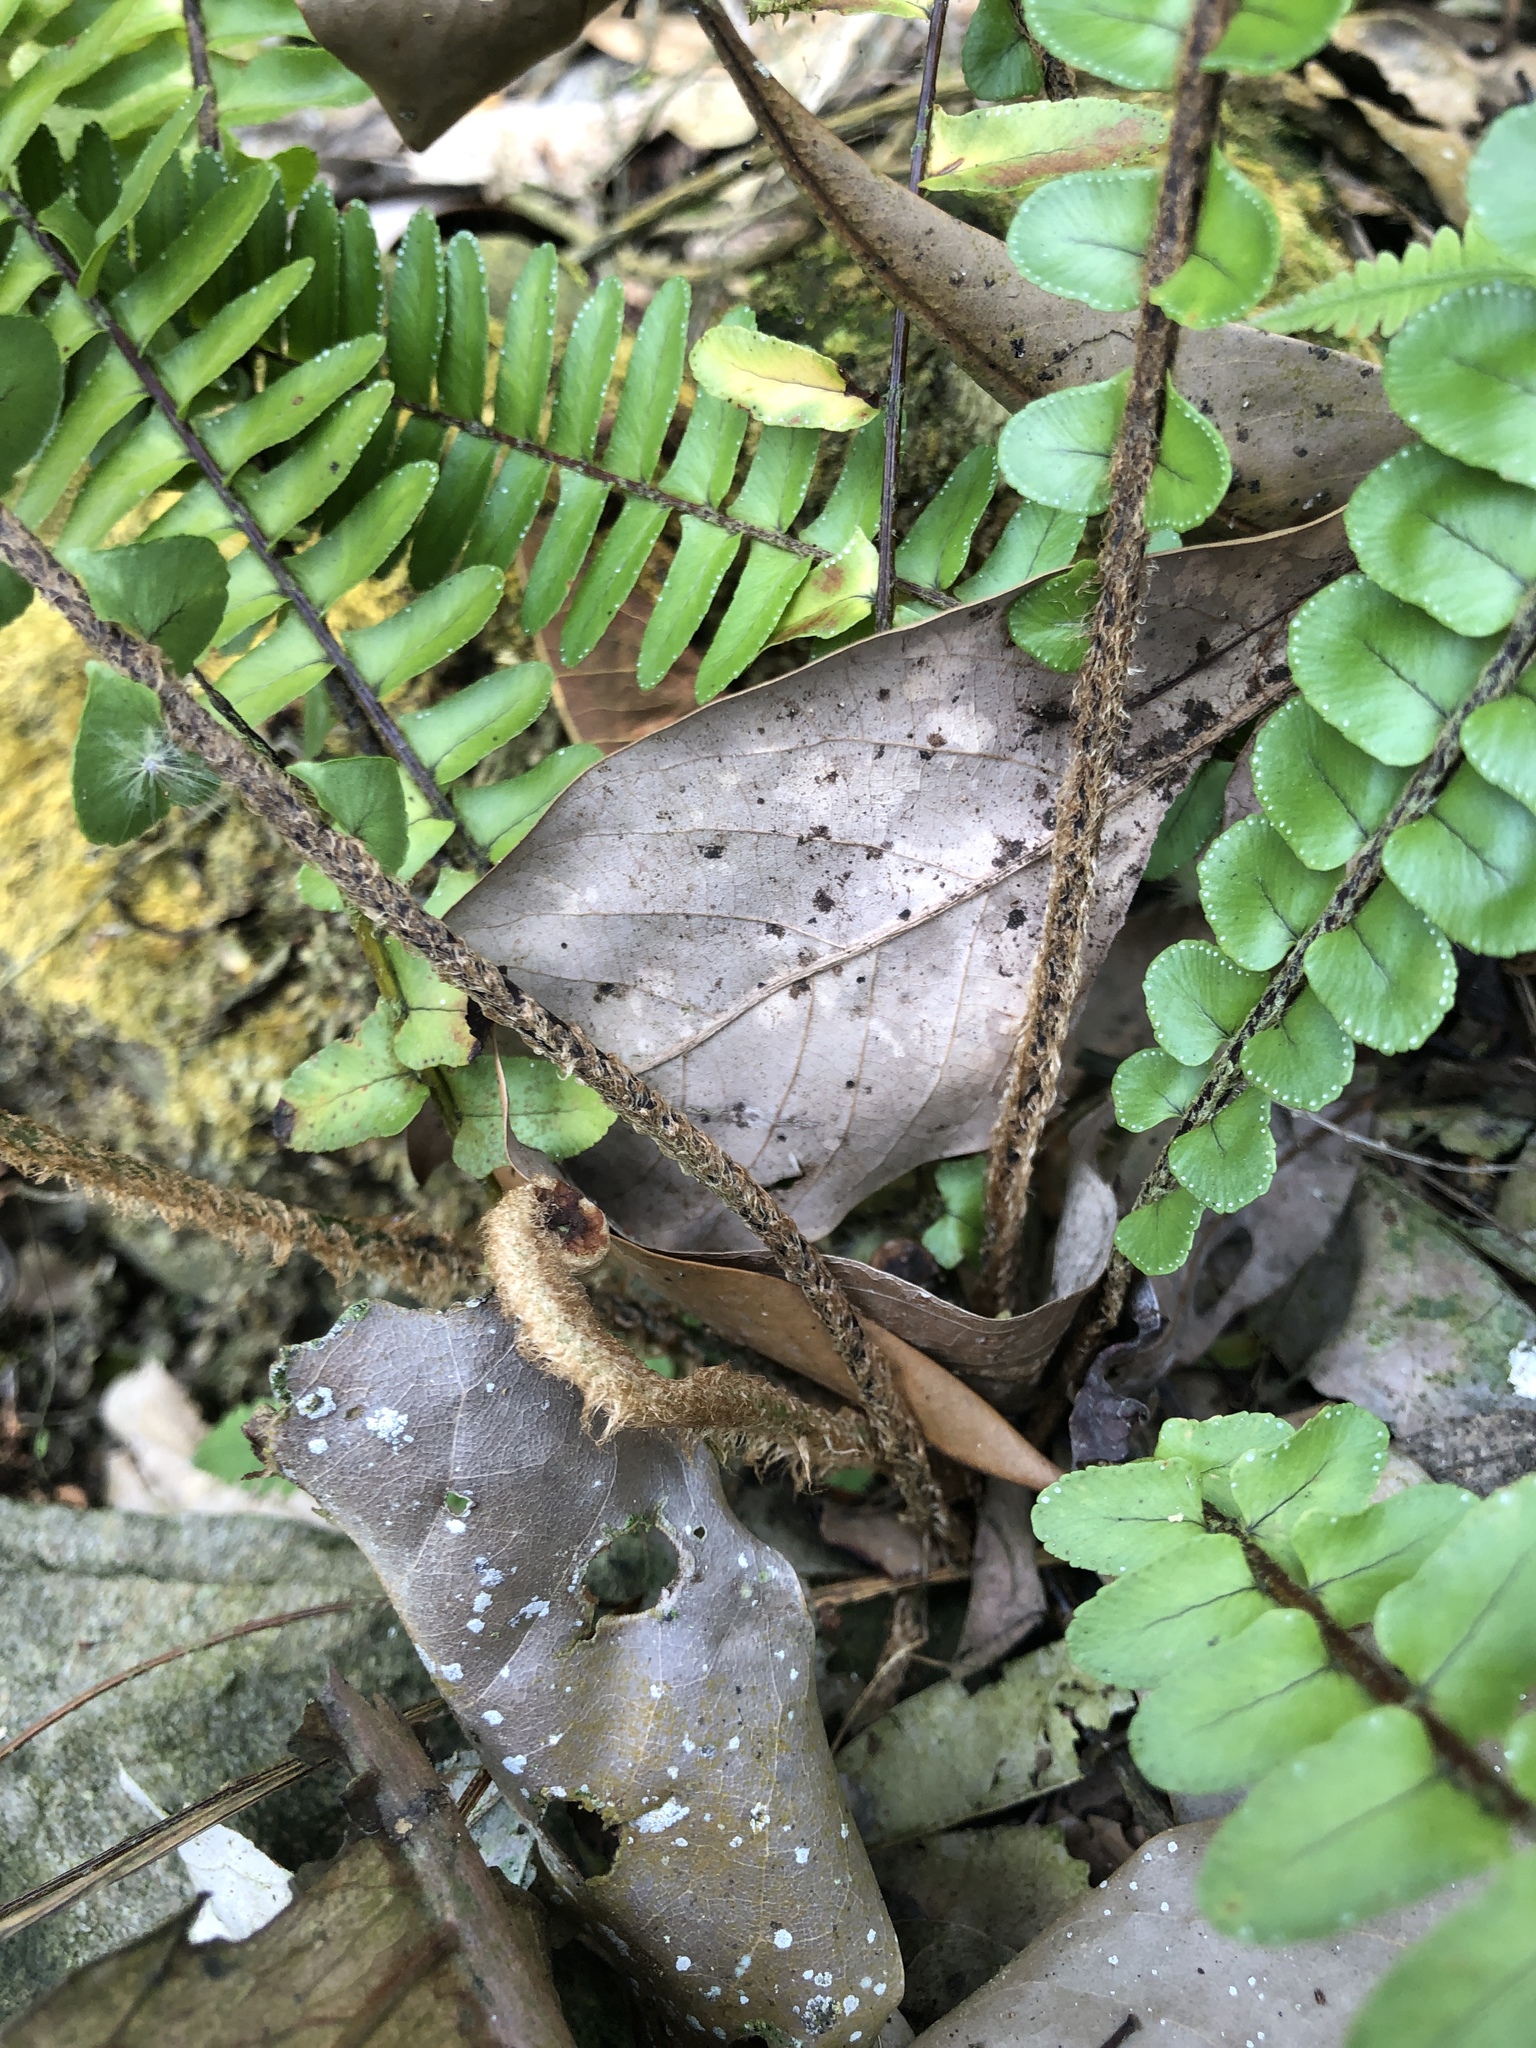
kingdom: Plantae
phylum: Tracheophyta
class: Polypodiopsida
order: Polypodiales
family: Nephrolepidaceae
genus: Nephrolepis
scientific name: Nephrolepis cordifolia
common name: Narrow swordfern
